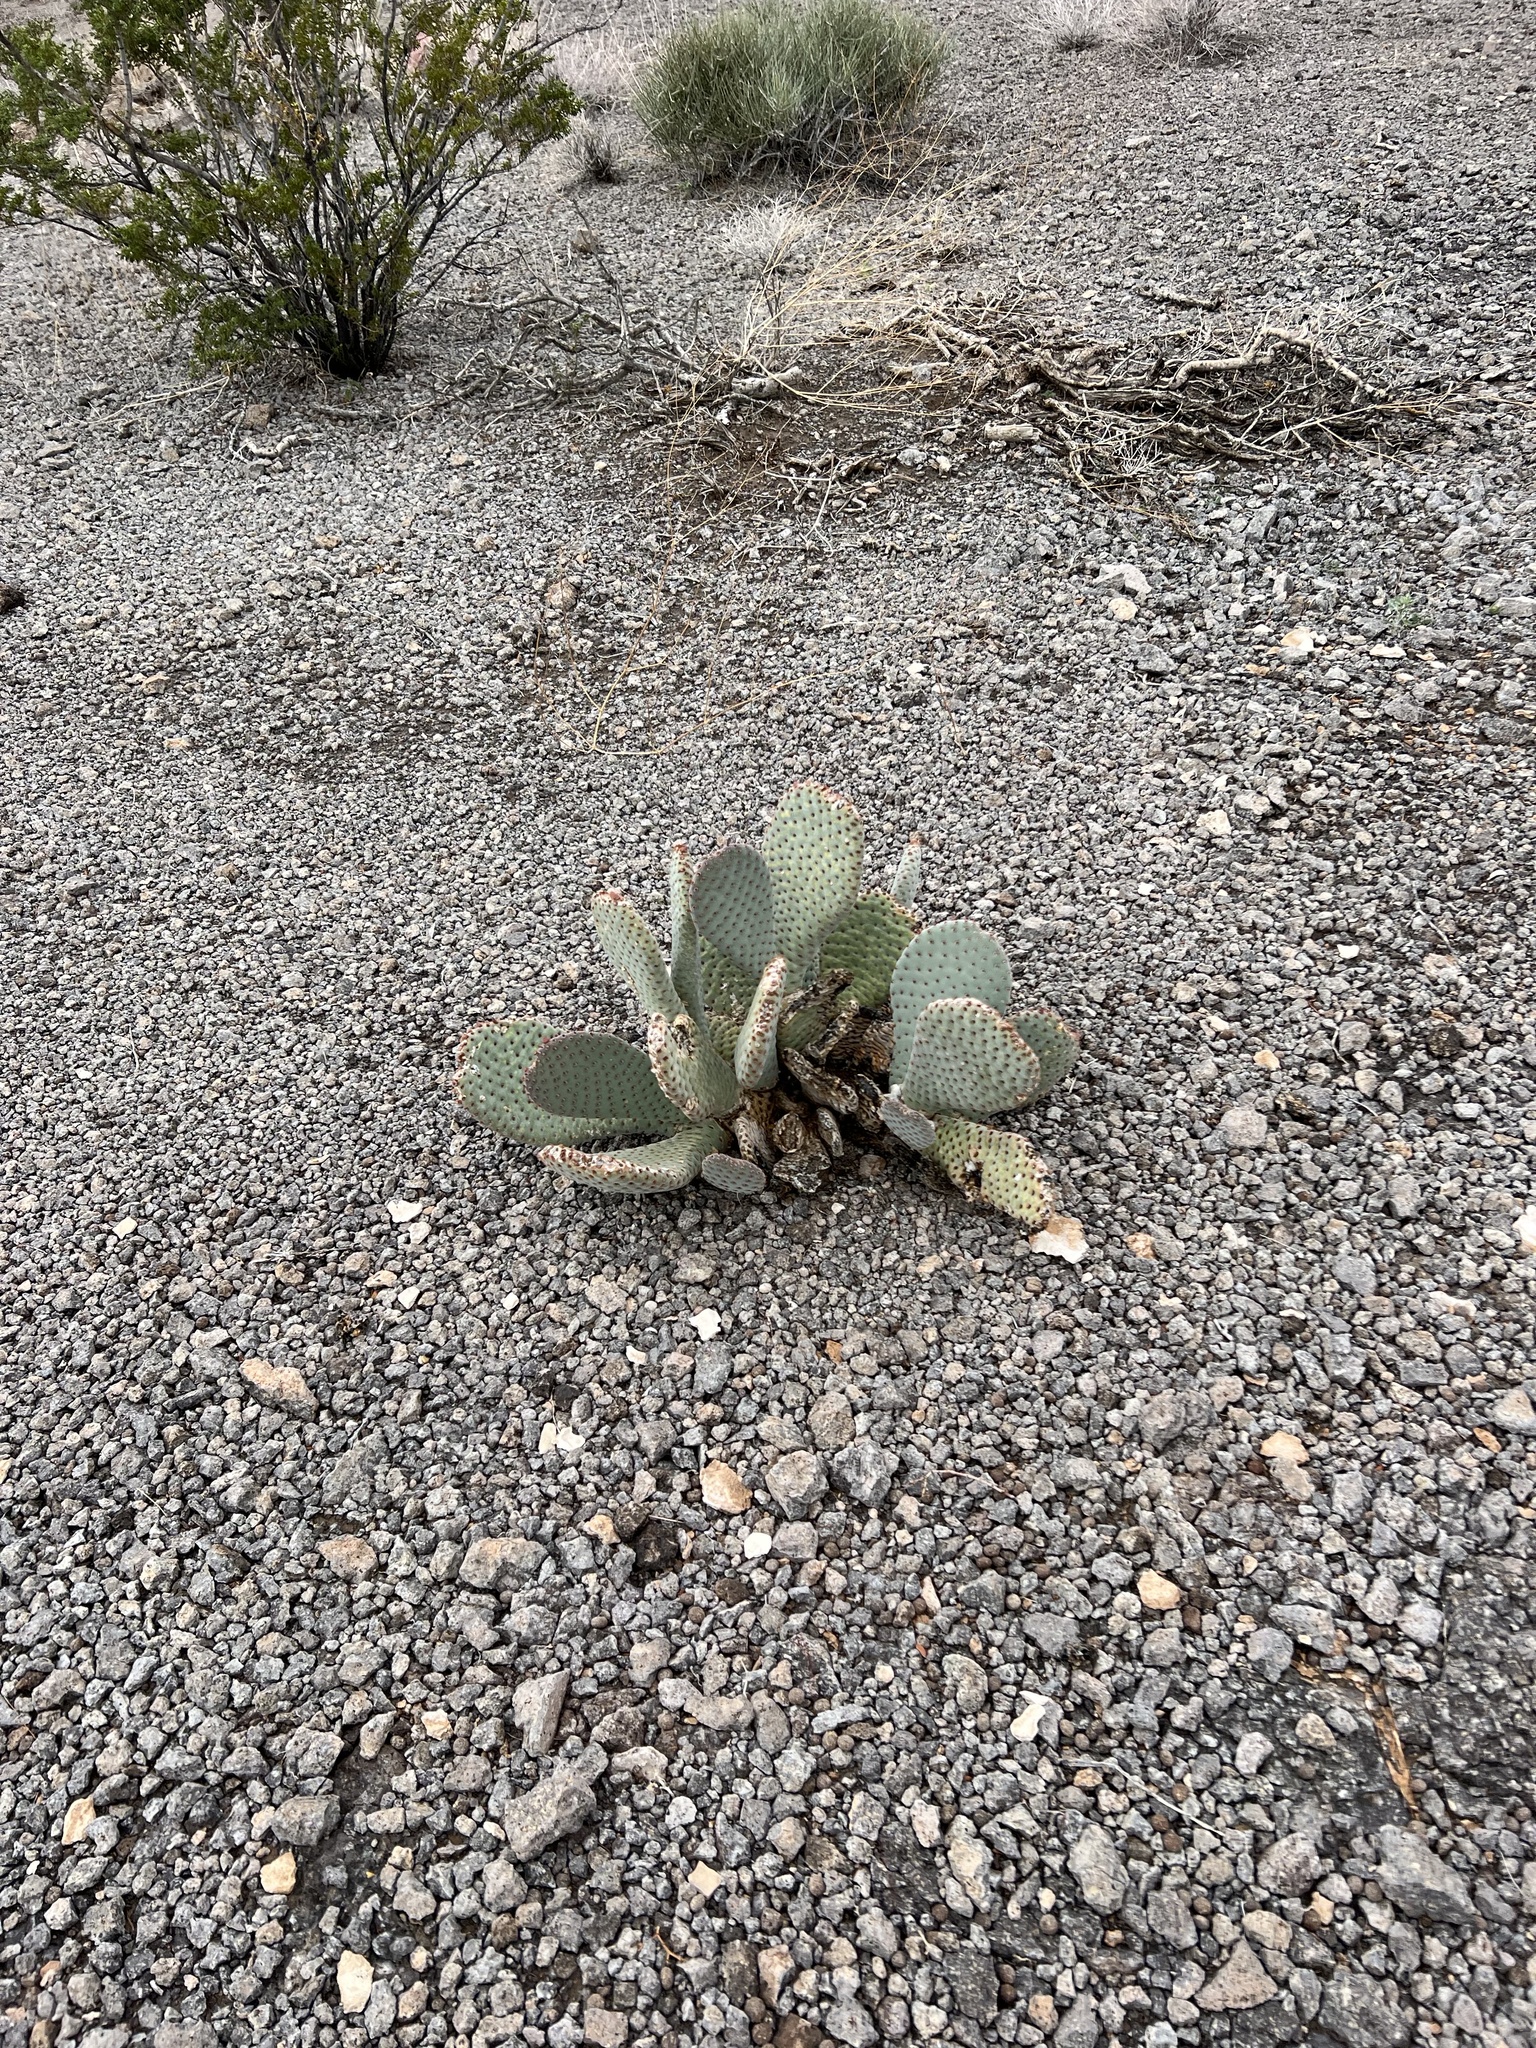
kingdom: Plantae
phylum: Tracheophyta
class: Magnoliopsida
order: Caryophyllales
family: Cactaceae
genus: Opuntia
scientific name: Opuntia basilaris
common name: Beavertail prickly-pear
